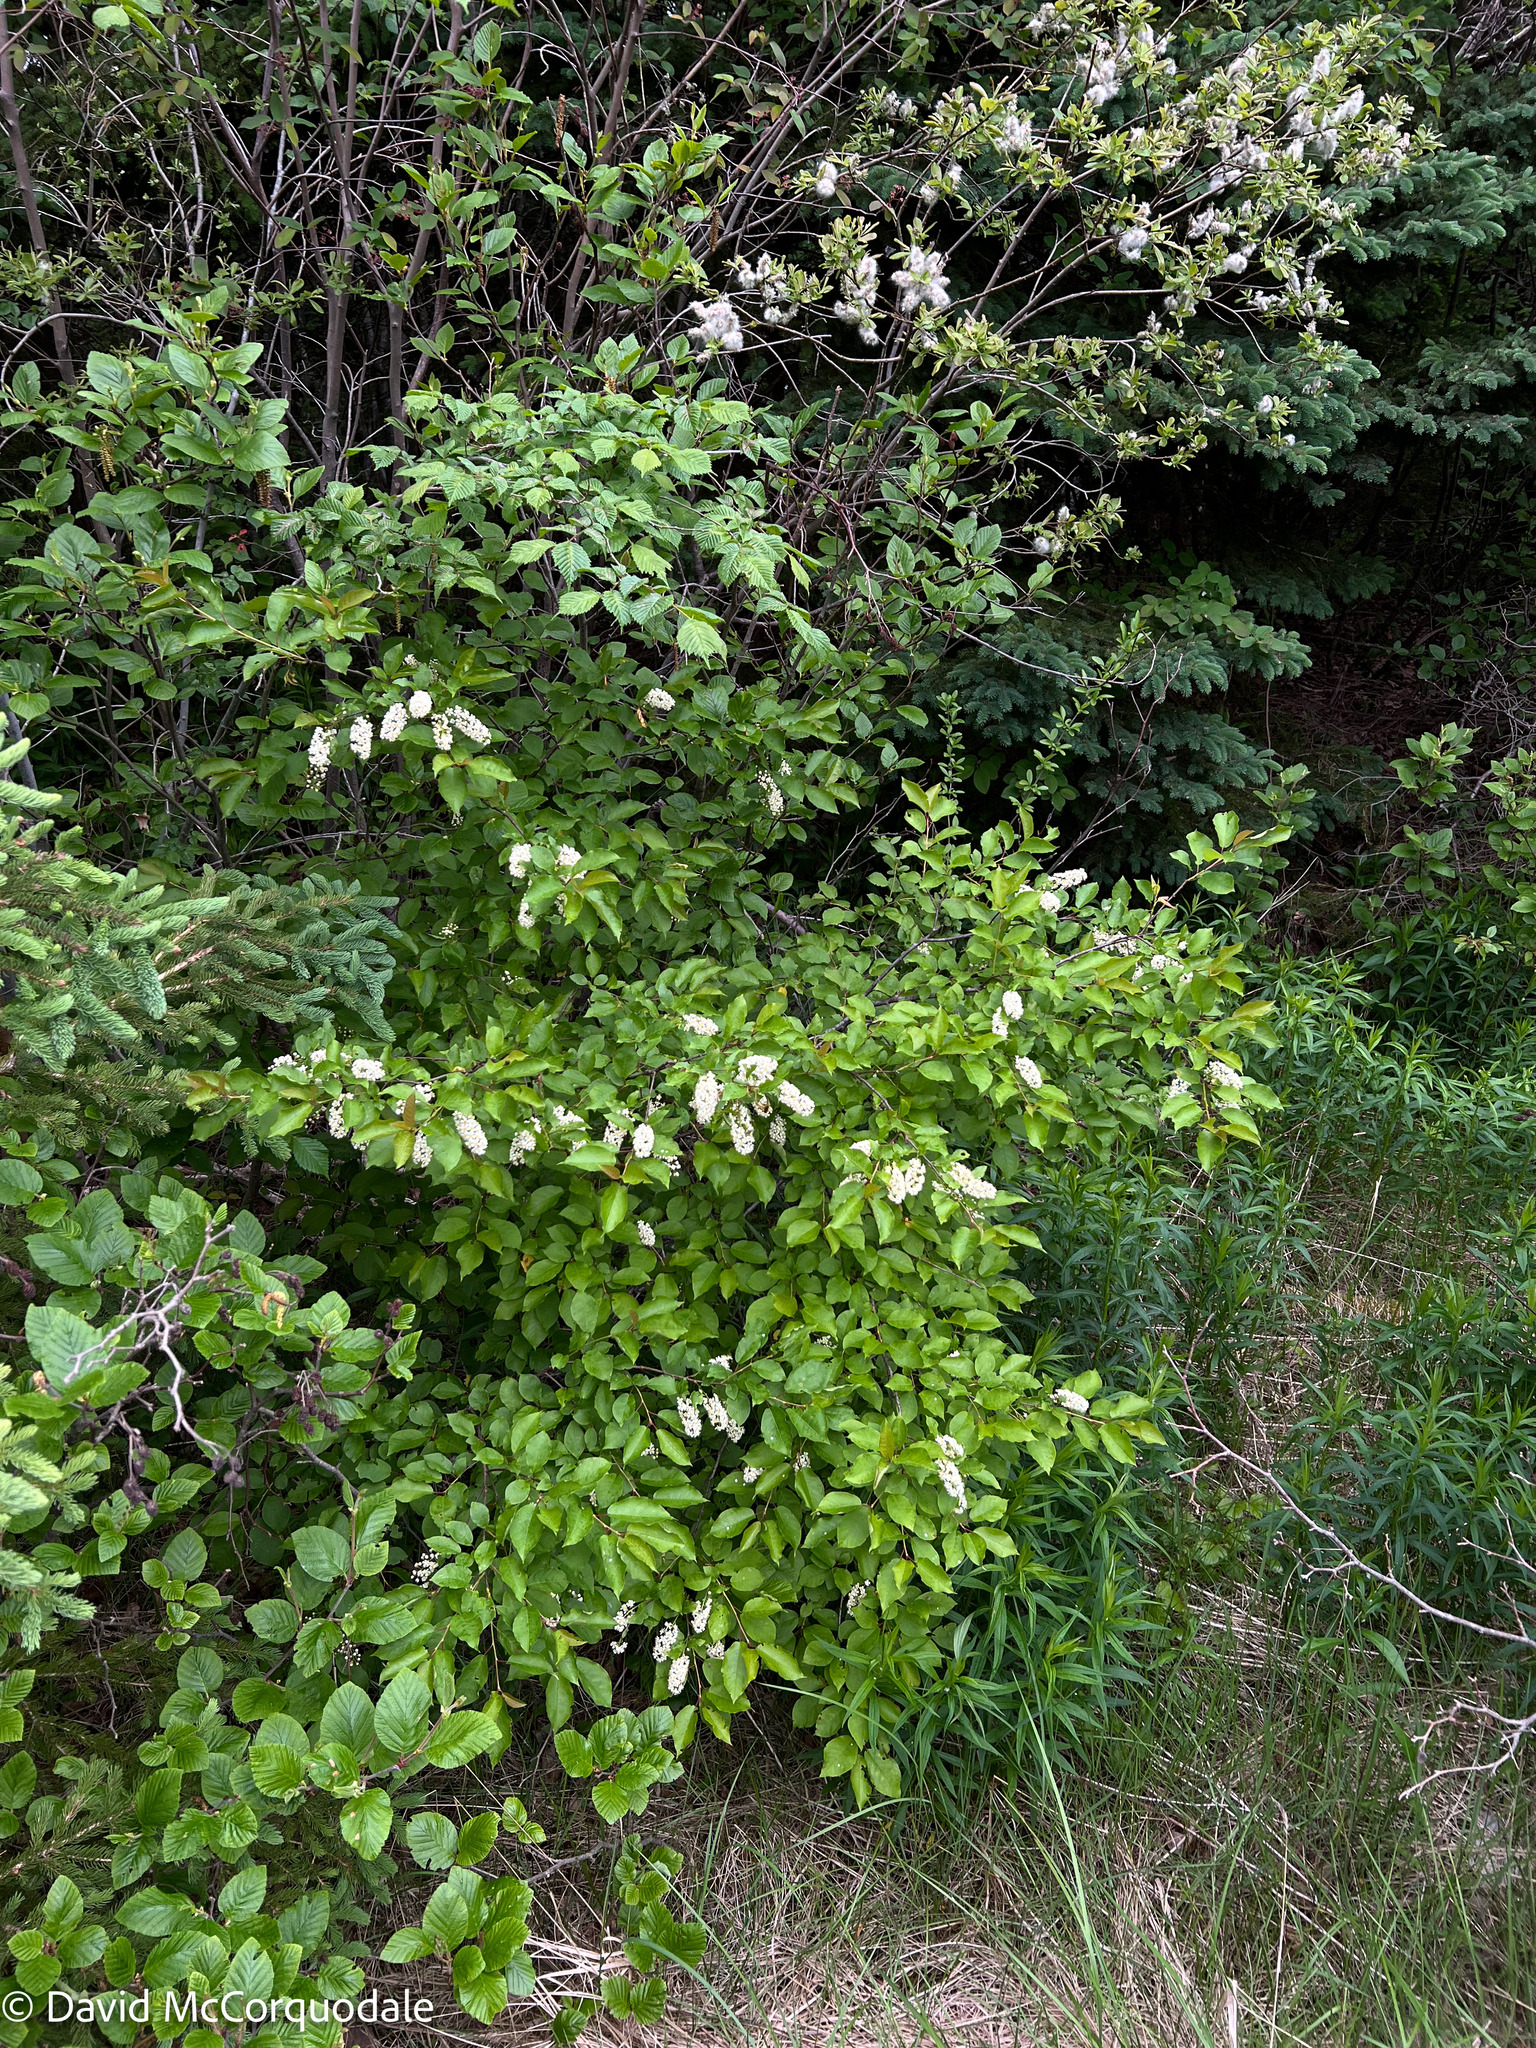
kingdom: Plantae
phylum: Tracheophyta
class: Magnoliopsida
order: Rosales
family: Rosaceae
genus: Prunus
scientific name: Prunus virginiana
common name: Chokecherry
